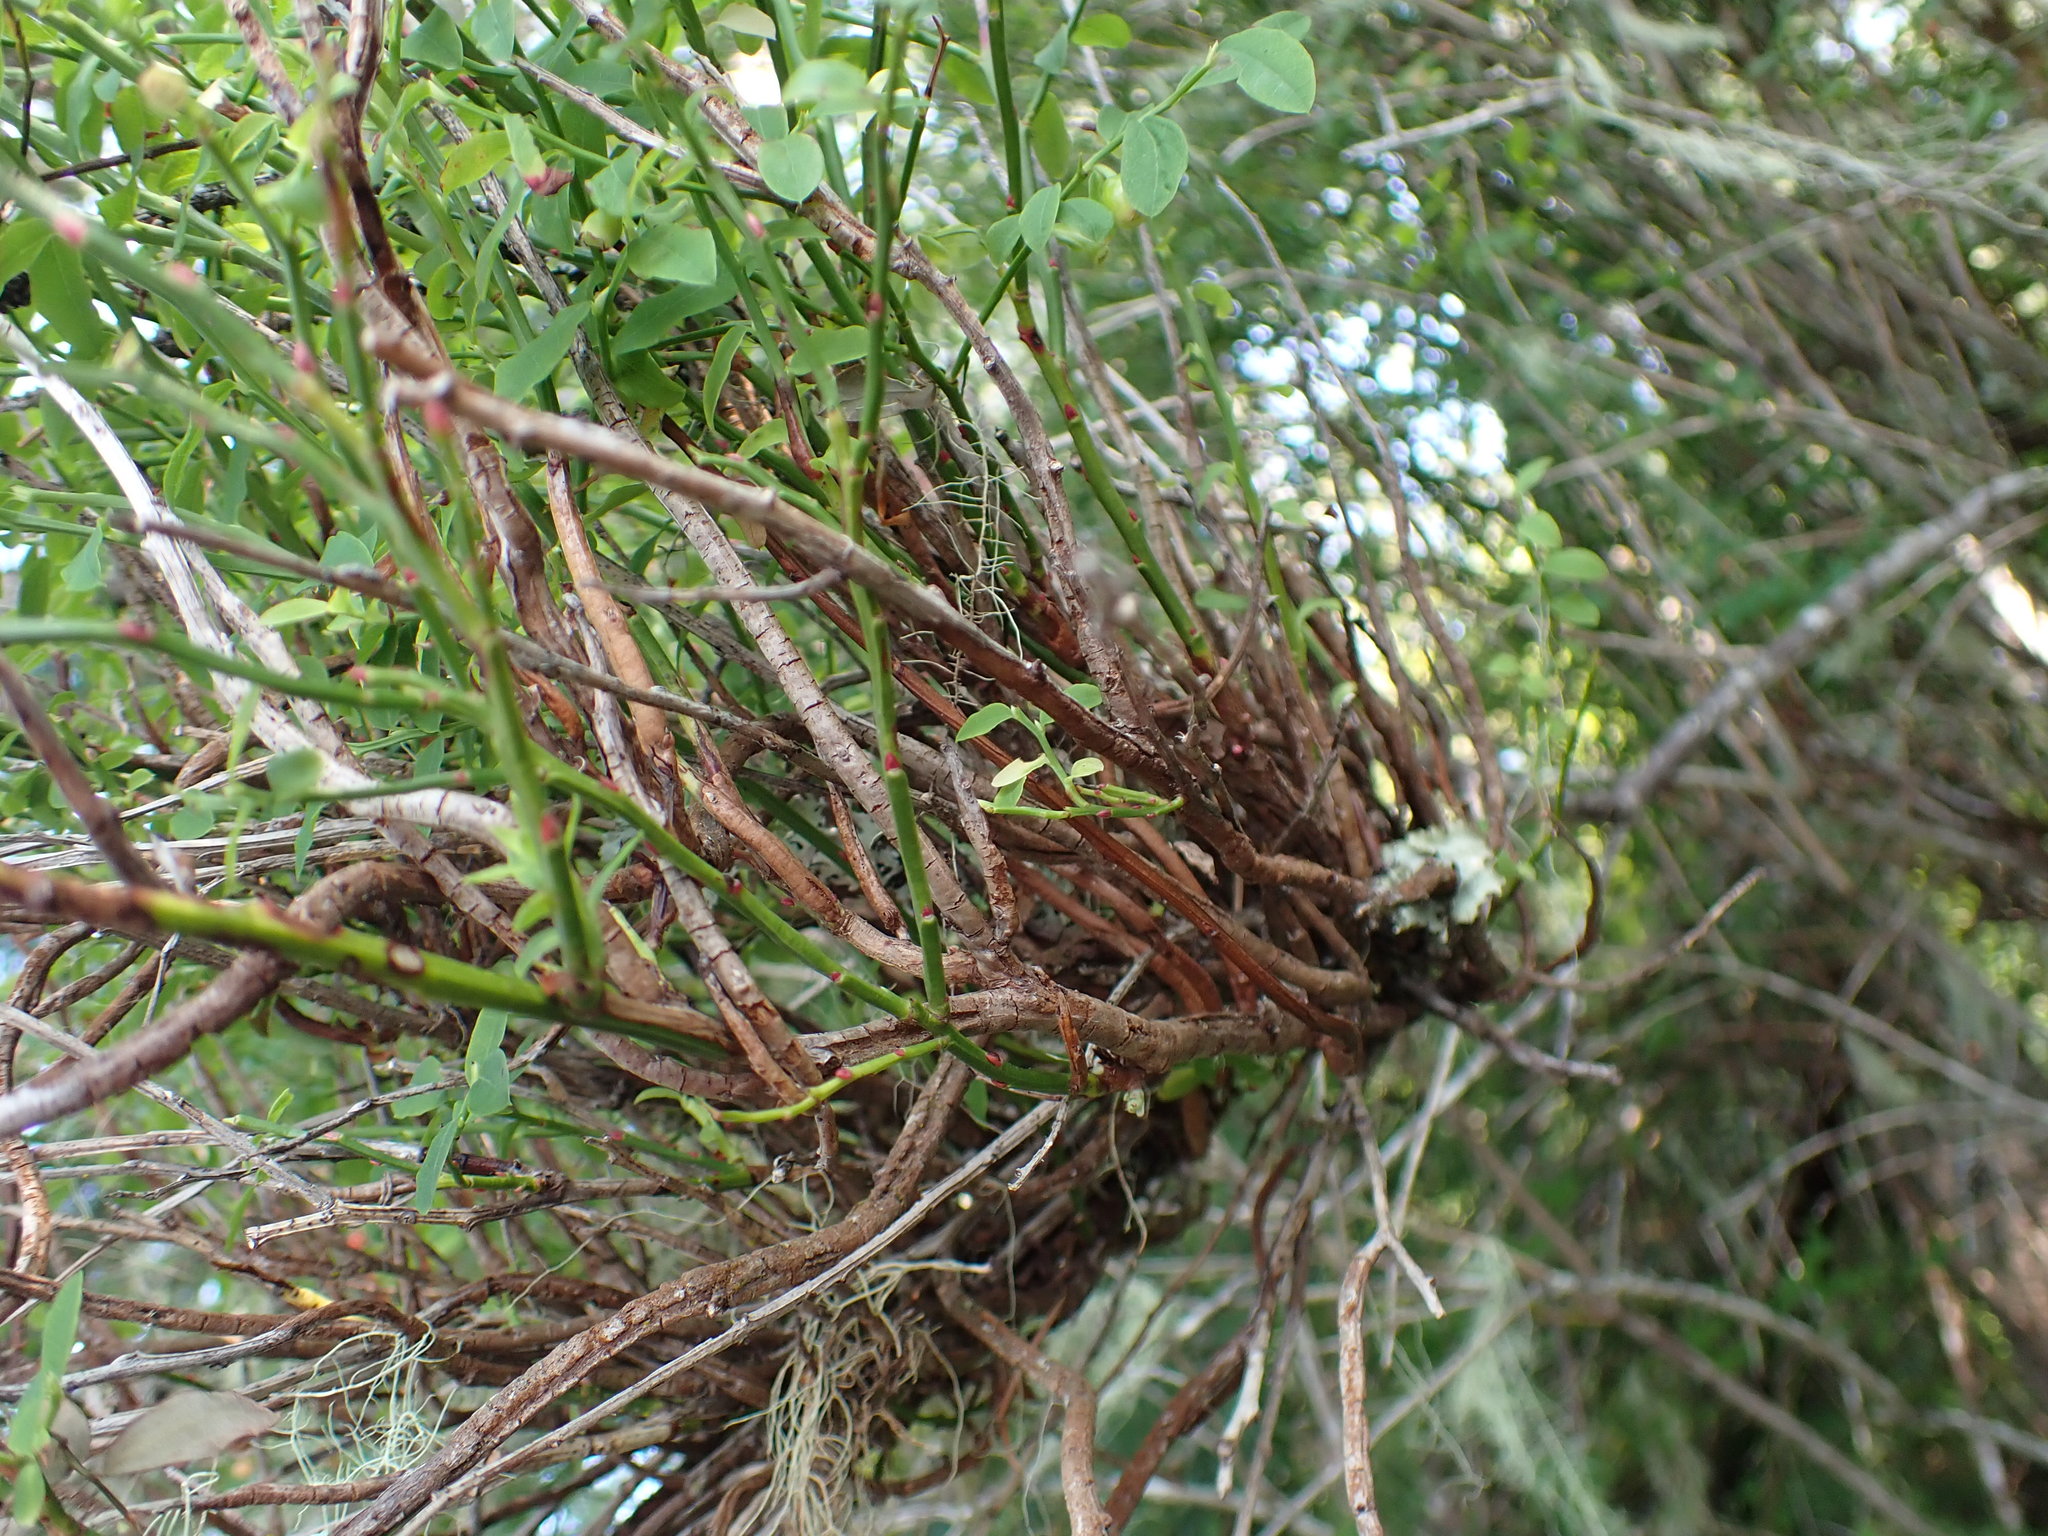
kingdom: Fungi
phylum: Basidiomycota
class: Pucciniomycetes
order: Pucciniales
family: Pucciniastraceae
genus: Calyptospora
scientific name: Calyptospora
